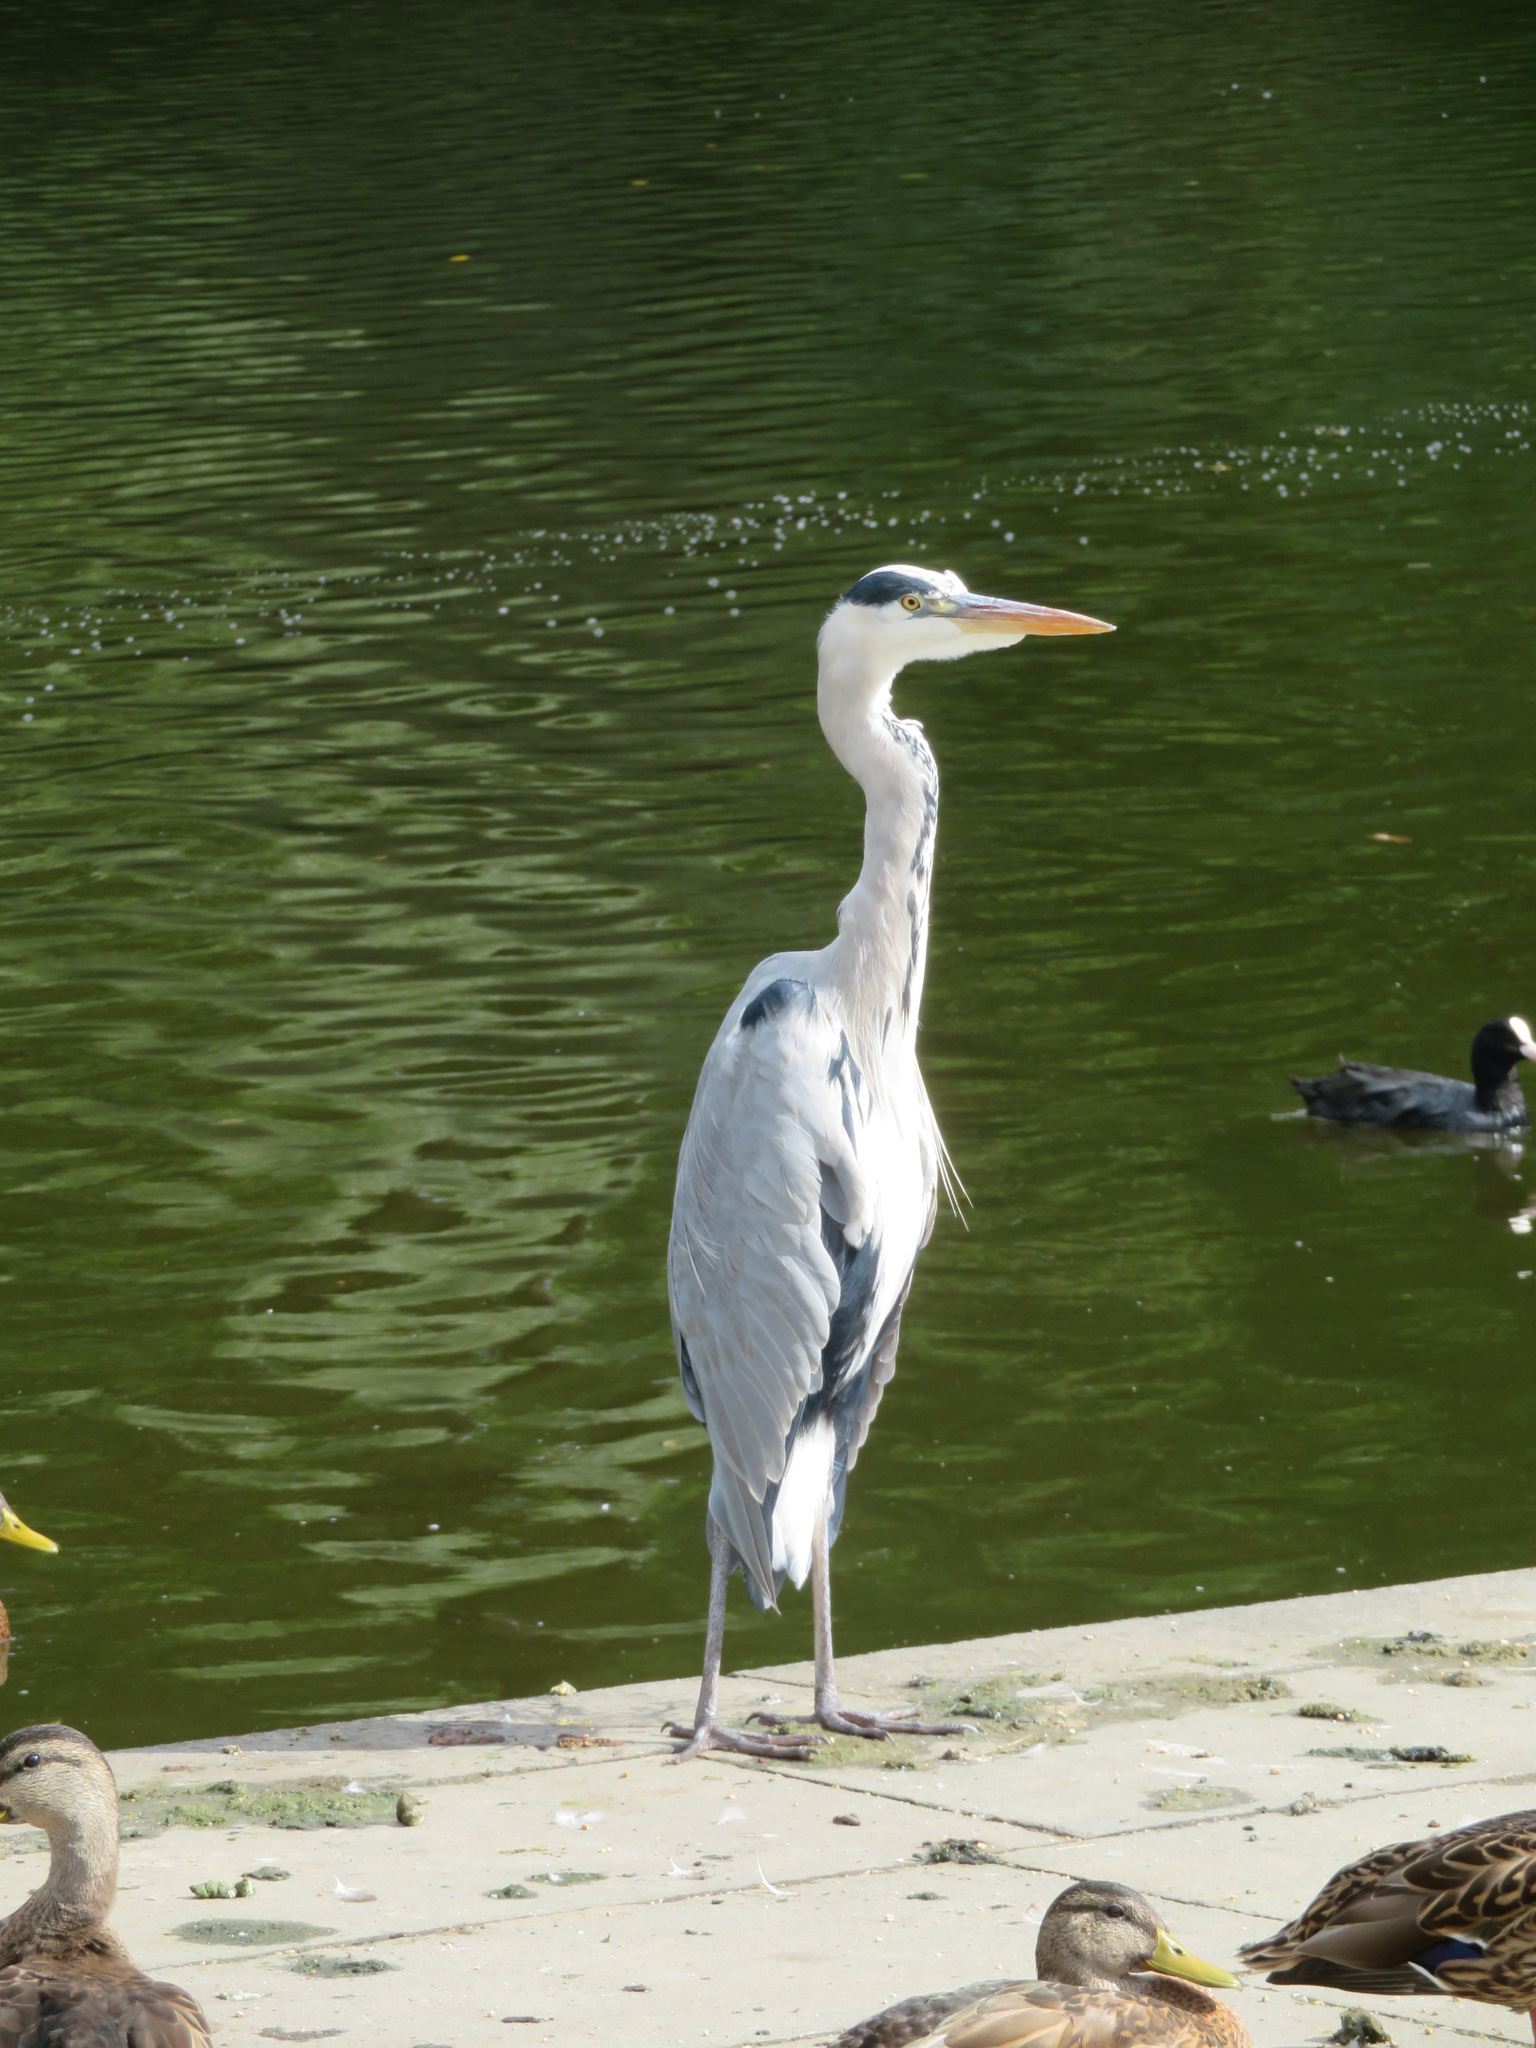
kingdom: Animalia
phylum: Chordata
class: Aves
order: Pelecaniformes
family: Ardeidae
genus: Ardea
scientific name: Ardea cinerea
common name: Grey heron
